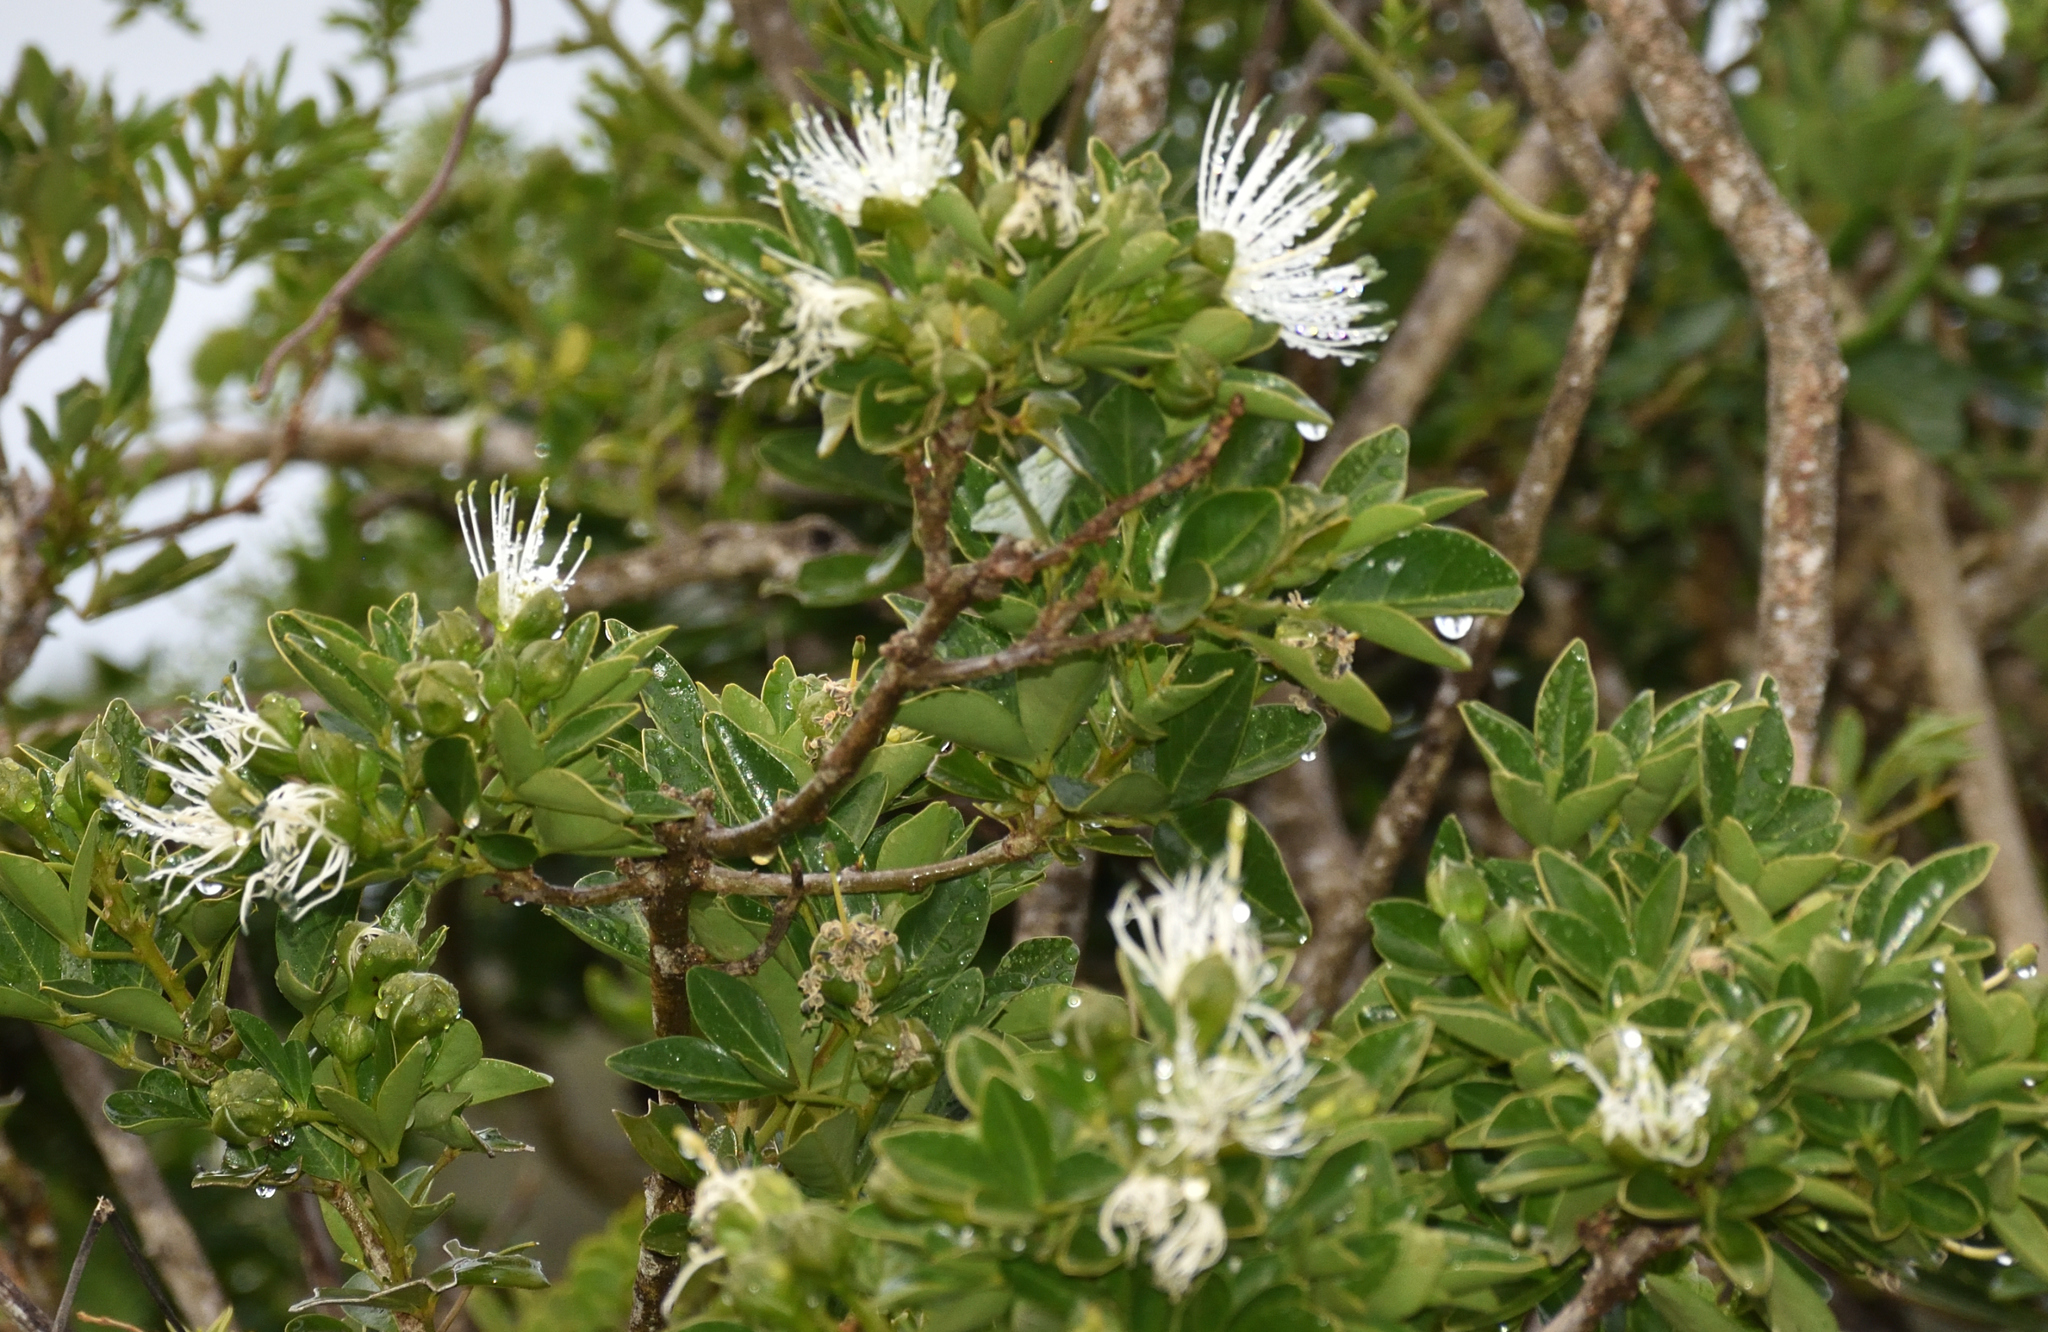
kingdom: Plantae
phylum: Tracheophyta
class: Magnoliopsida
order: Brassicales
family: Capparaceae
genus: Maerua
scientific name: Maerua cafra
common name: Bush maerua
